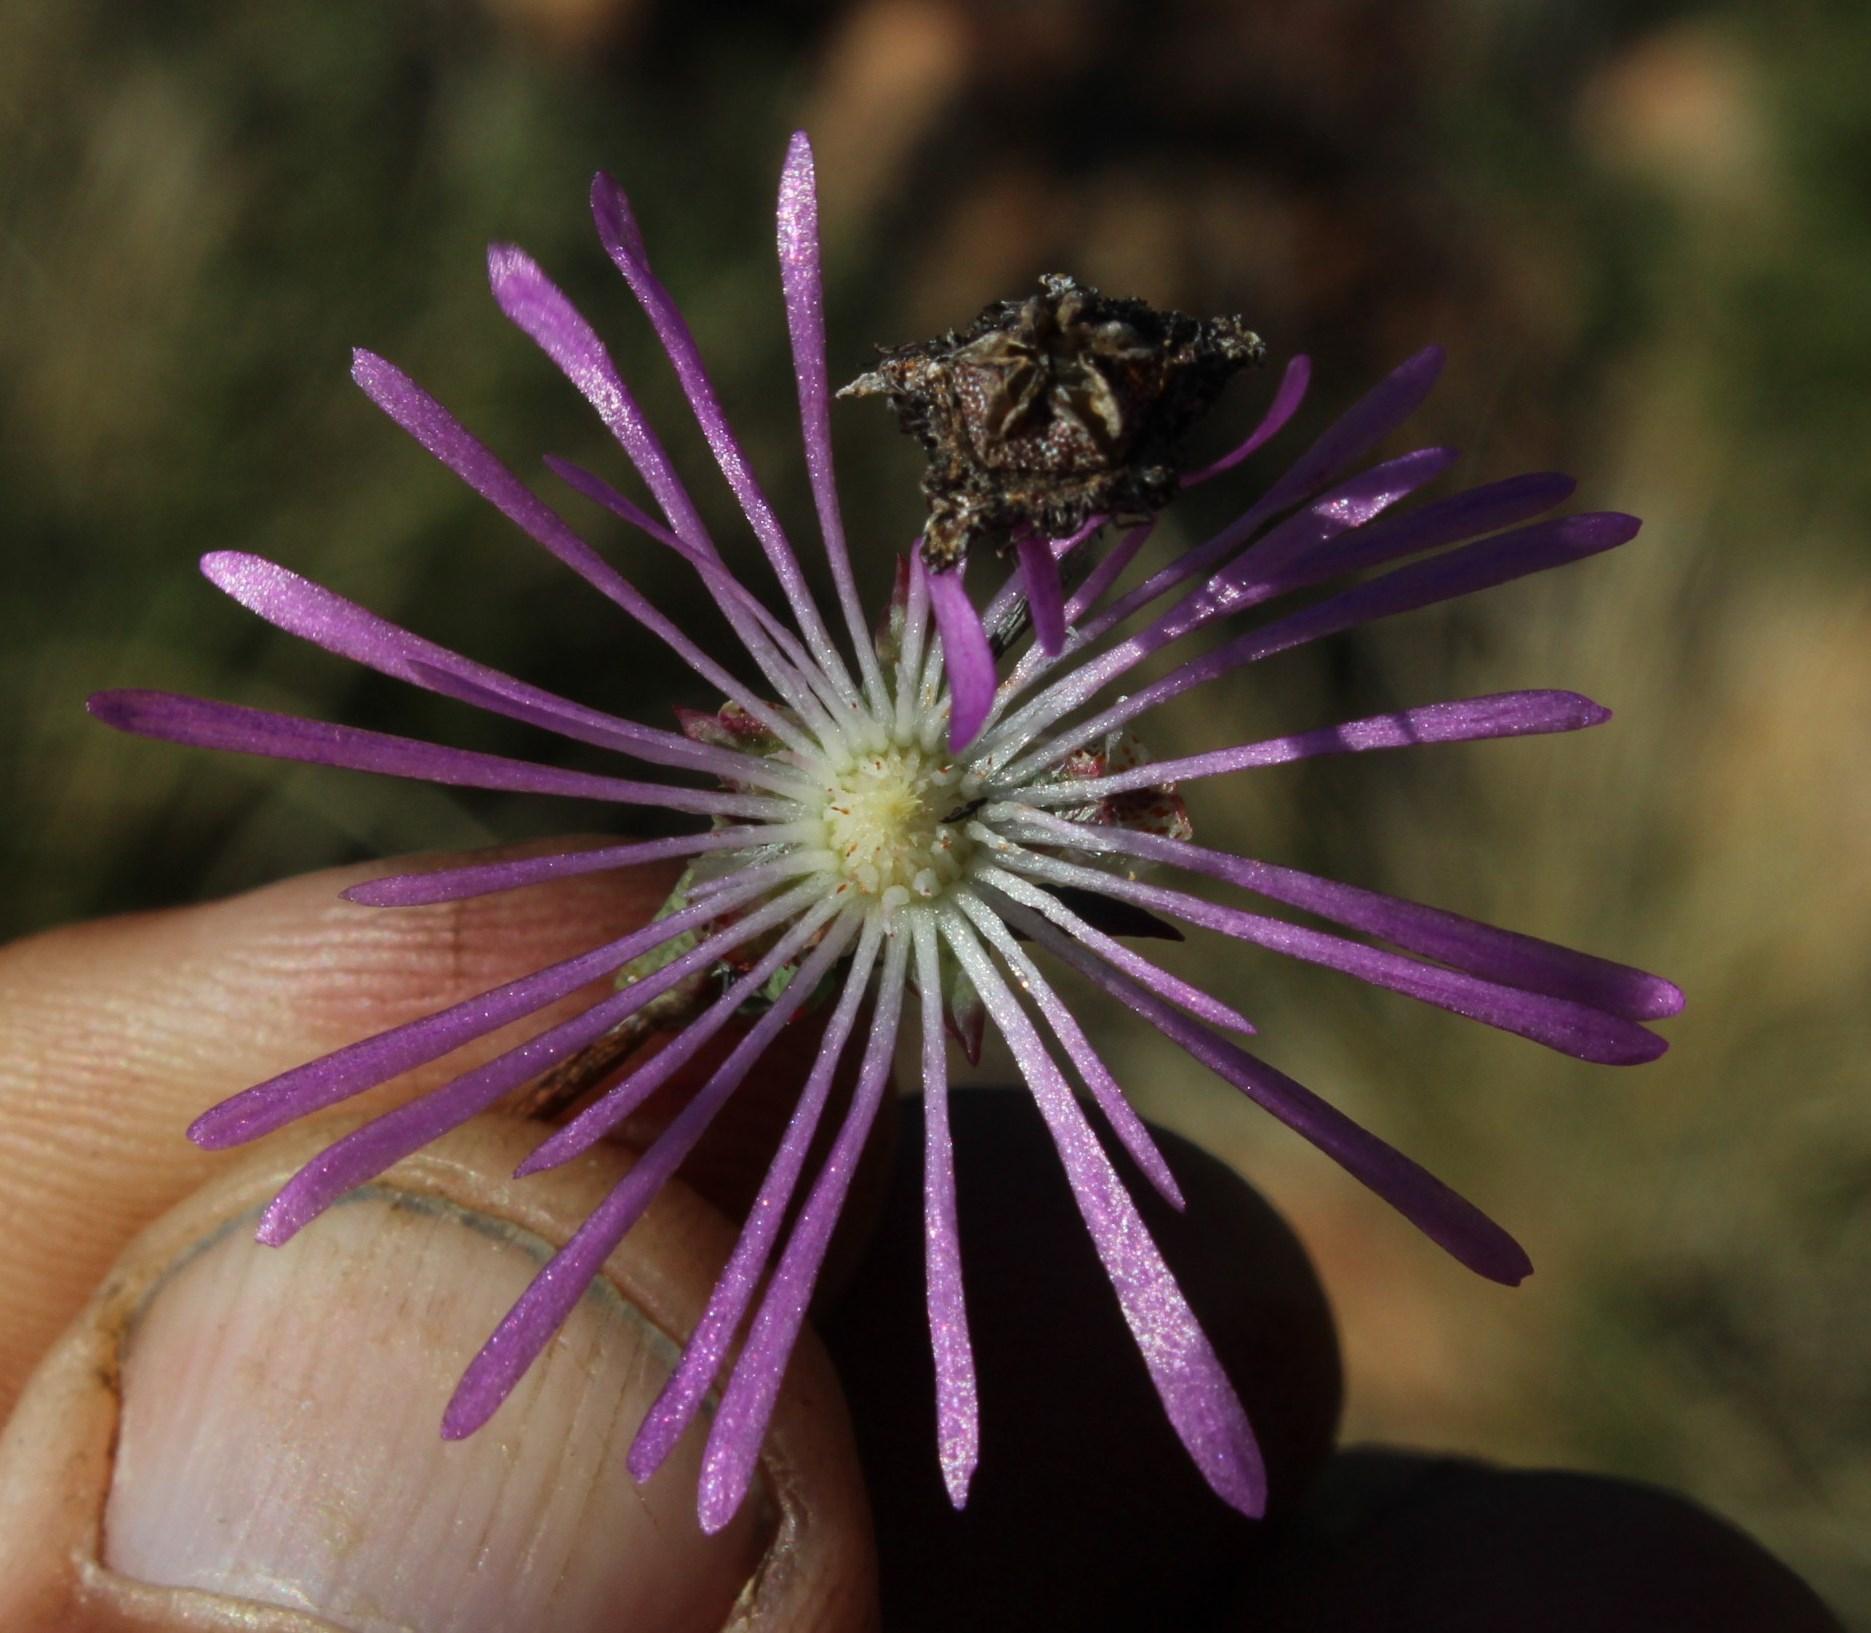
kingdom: Plantae
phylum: Tracheophyta
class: Magnoliopsida
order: Caryophyllales
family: Aizoaceae
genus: Erepsia
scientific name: Erepsia aspera
